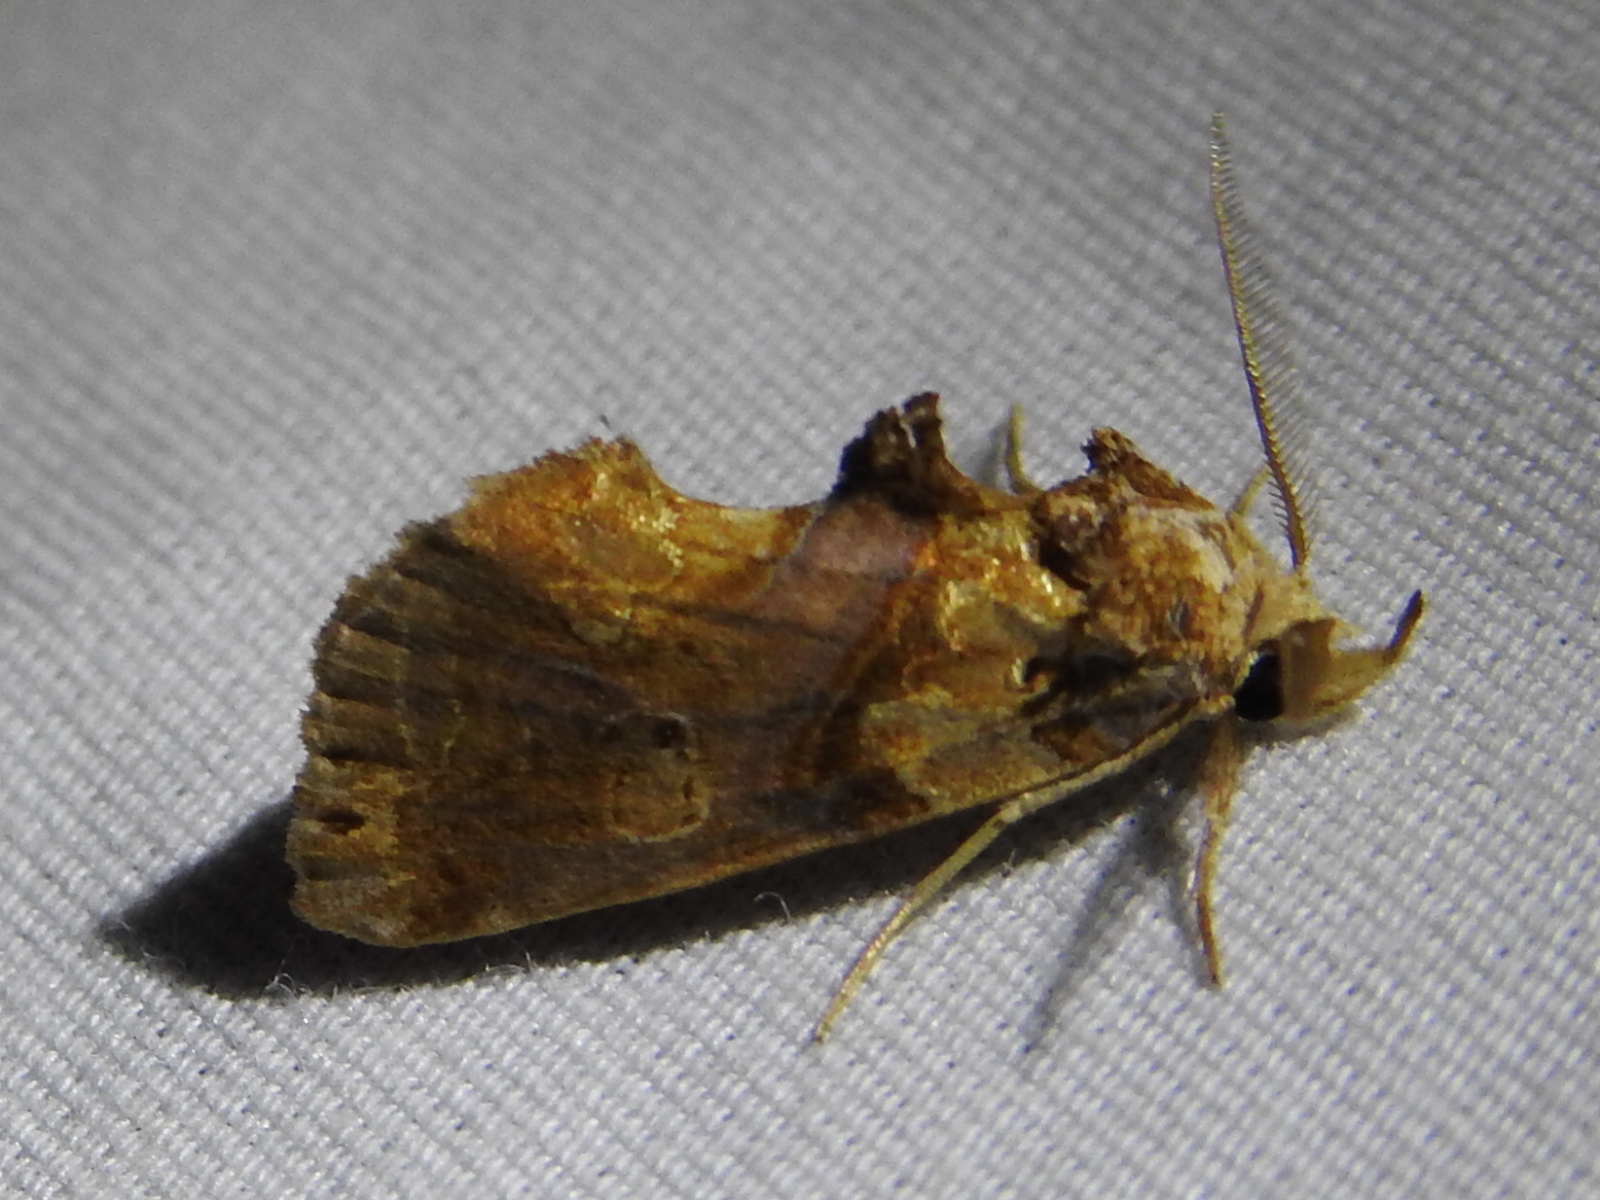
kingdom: Animalia
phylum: Arthropoda
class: Insecta
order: Lepidoptera
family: Erebidae
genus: Plusiodonta
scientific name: Plusiodonta compressipalpis
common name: Moonseed moth
